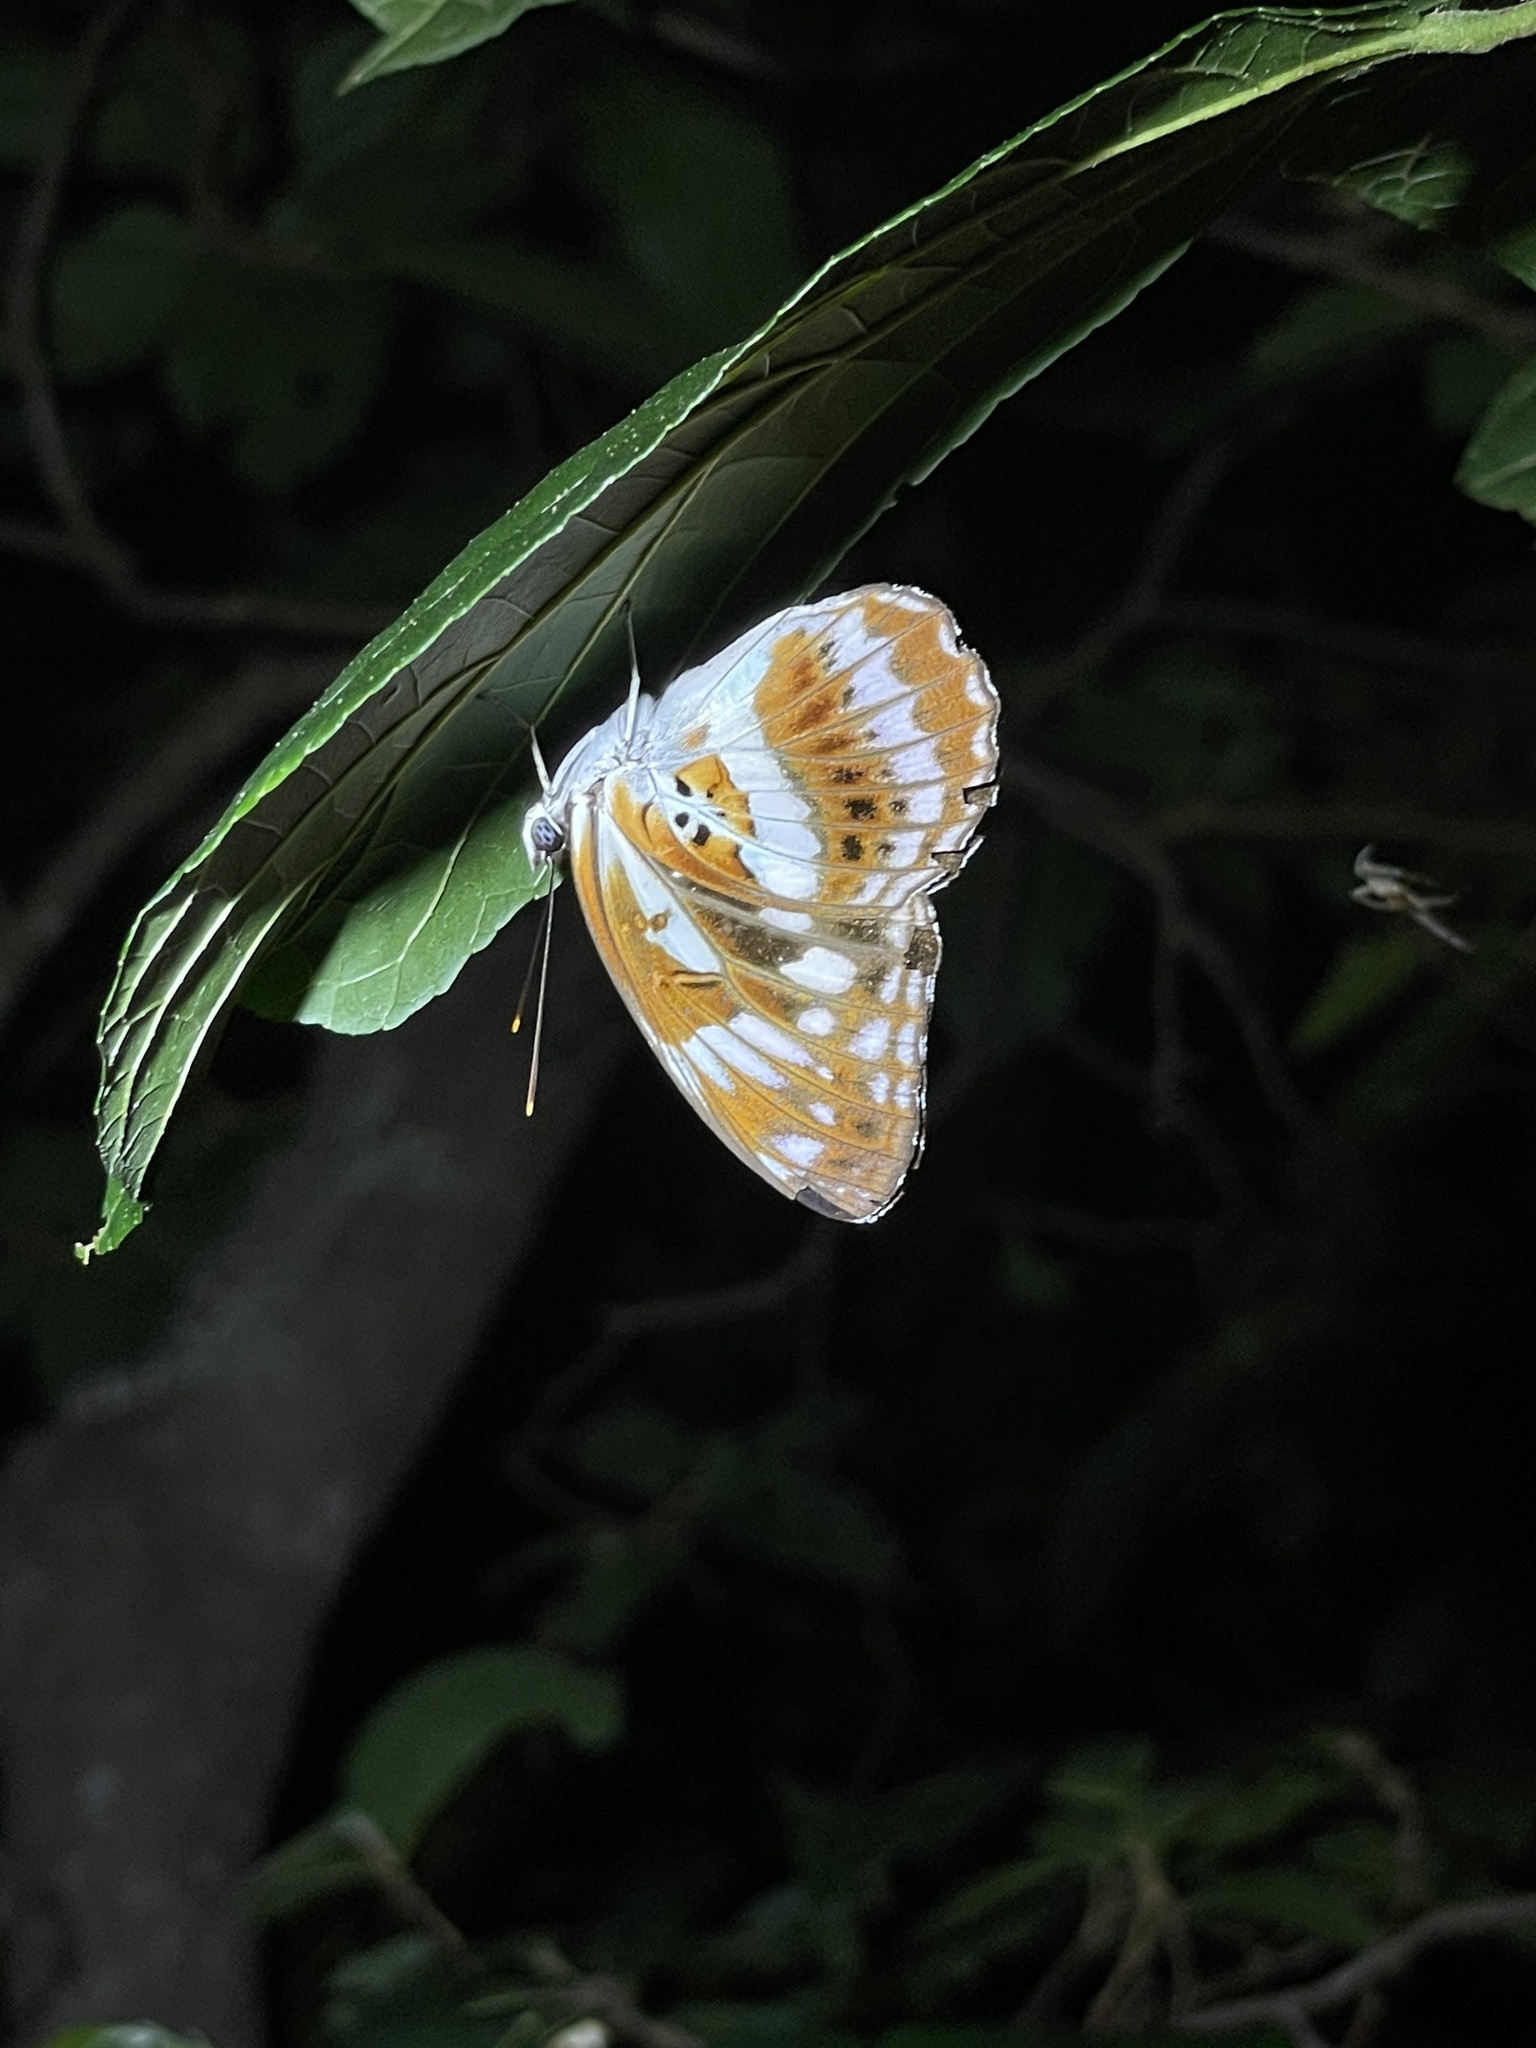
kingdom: Animalia
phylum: Arthropoda
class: Insecta
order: Lepidoptera
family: Nymphalidae
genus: Limenitis
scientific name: Limenitis sulpitia
